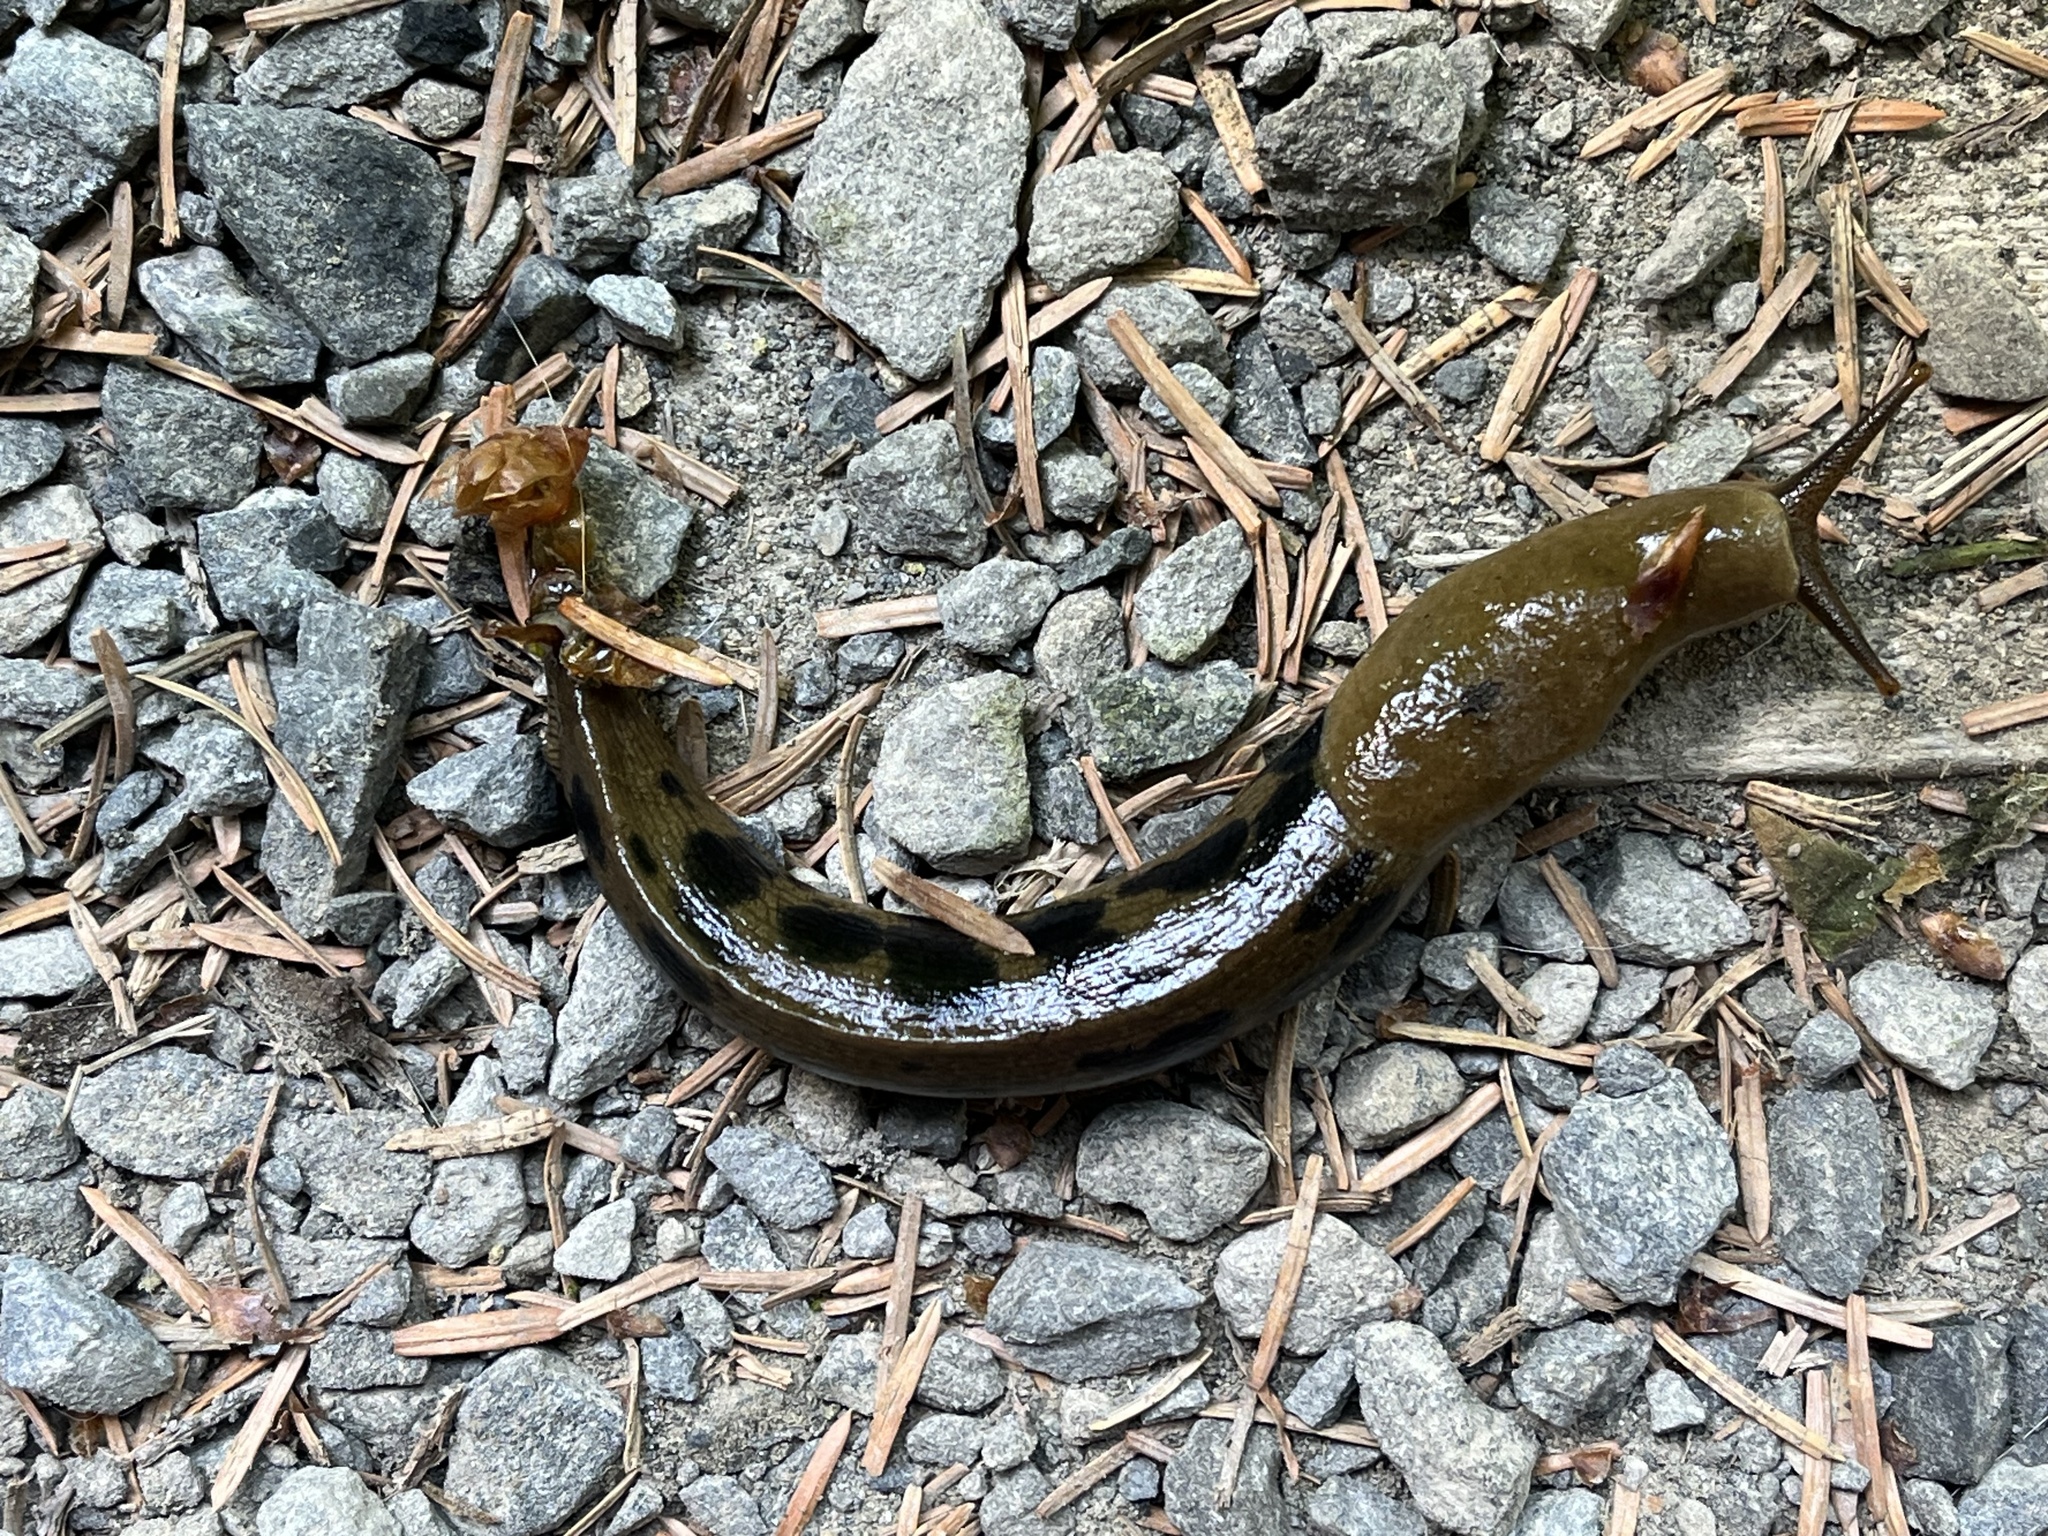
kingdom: Animalia
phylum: Mollusca
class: Gastropoda
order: Stylommatophora
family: Ariolimacidae
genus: Ariolimax
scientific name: Ariolimax columbianus
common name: Pacific banana slug
